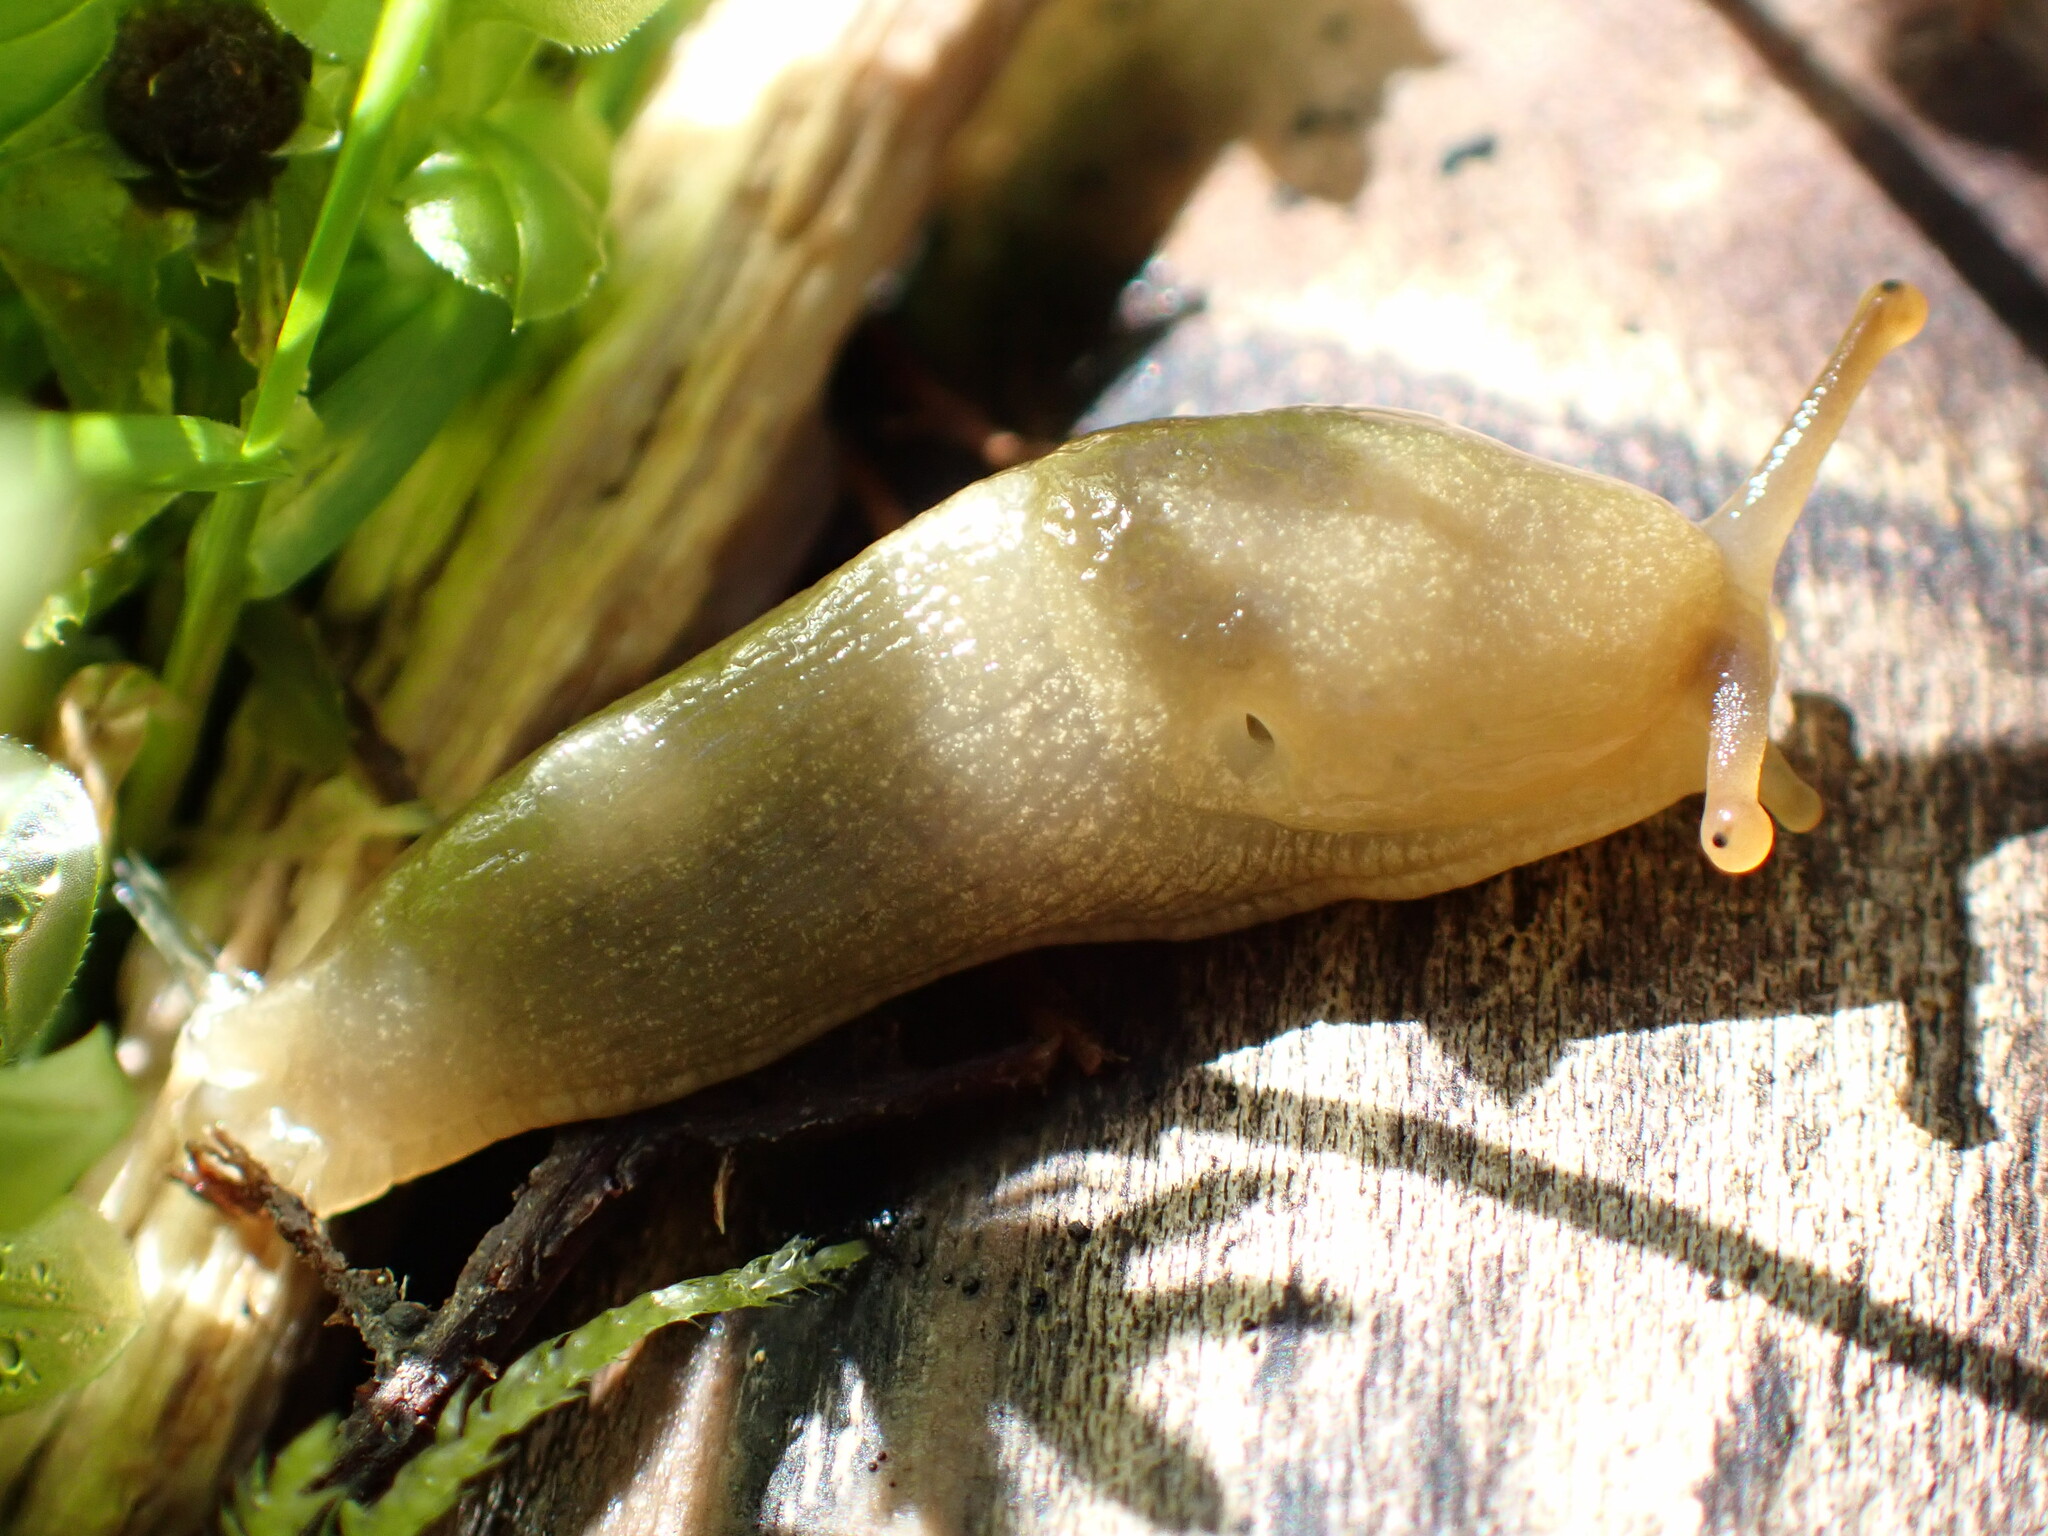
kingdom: Animalia
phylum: Mollusca
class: Gastropoda
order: Stylommatophora
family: Ariolimacidae
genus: Ariolimax
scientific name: Ariolimax columbianus
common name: Pacific banana slug
